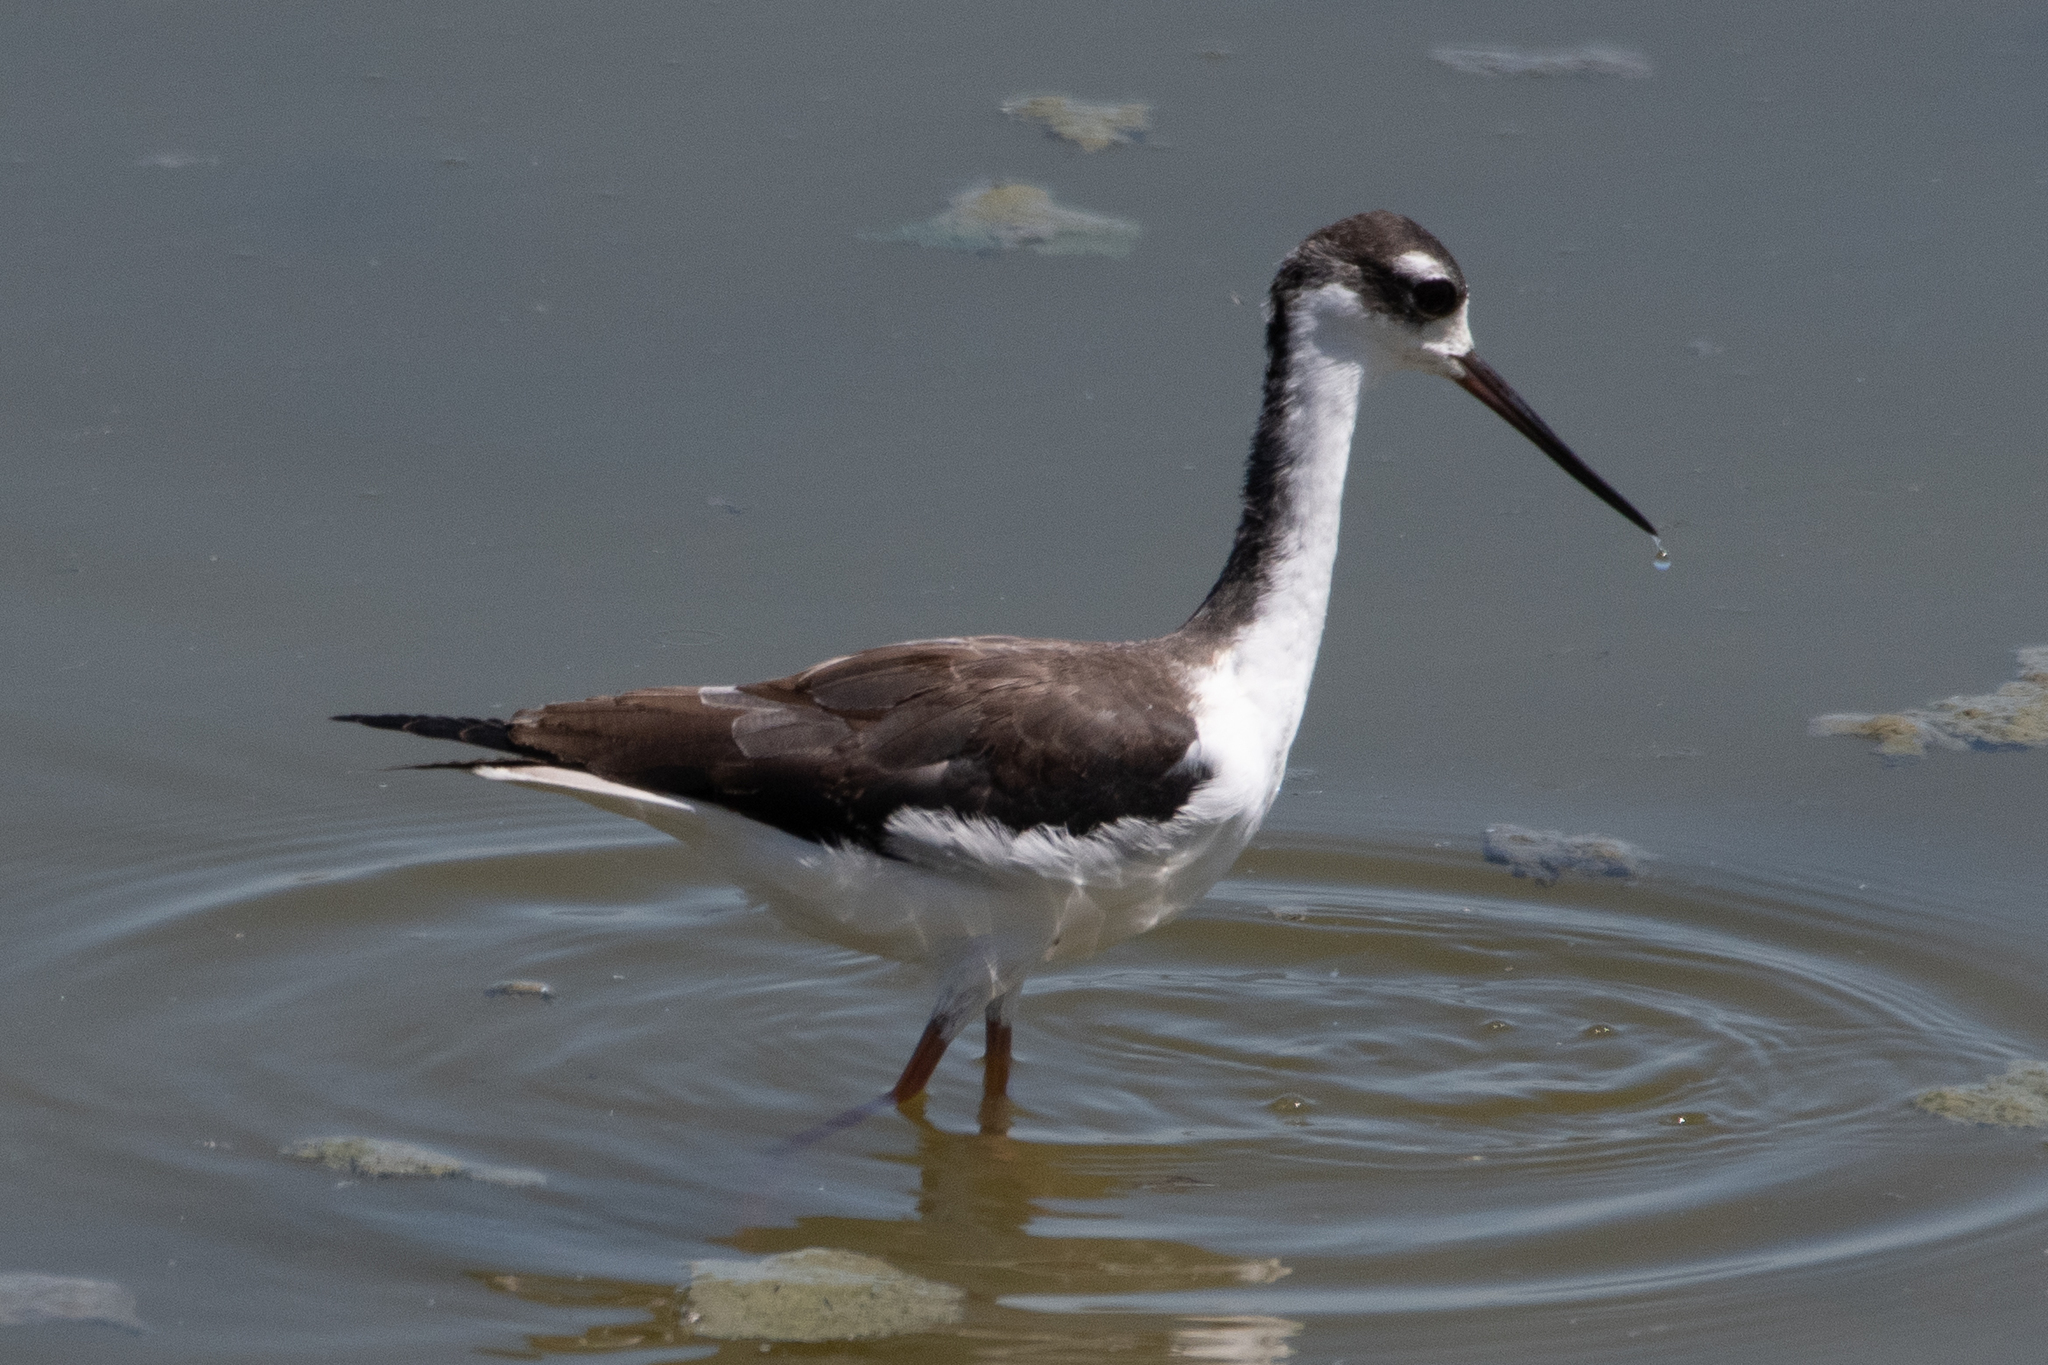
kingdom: Animalia
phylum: Chordata
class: Aves
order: Charadriiformes
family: Recurvirostridae
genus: Himantopus
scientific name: Himantopus mexicanus
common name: Black-necked stilt
